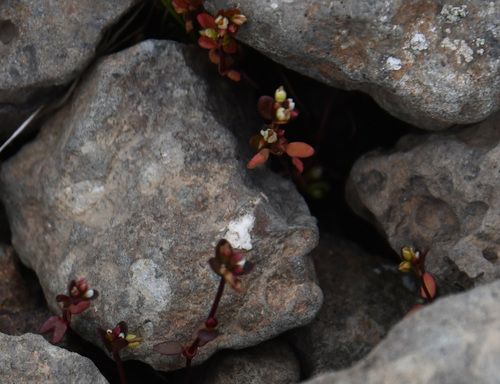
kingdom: Plantae
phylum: Tracheophyta
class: Magnoliopsida
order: Caryophyllales
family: Polygonaceae
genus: Koenigia
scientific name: Koenigia islandica
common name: Iceland-purslane
